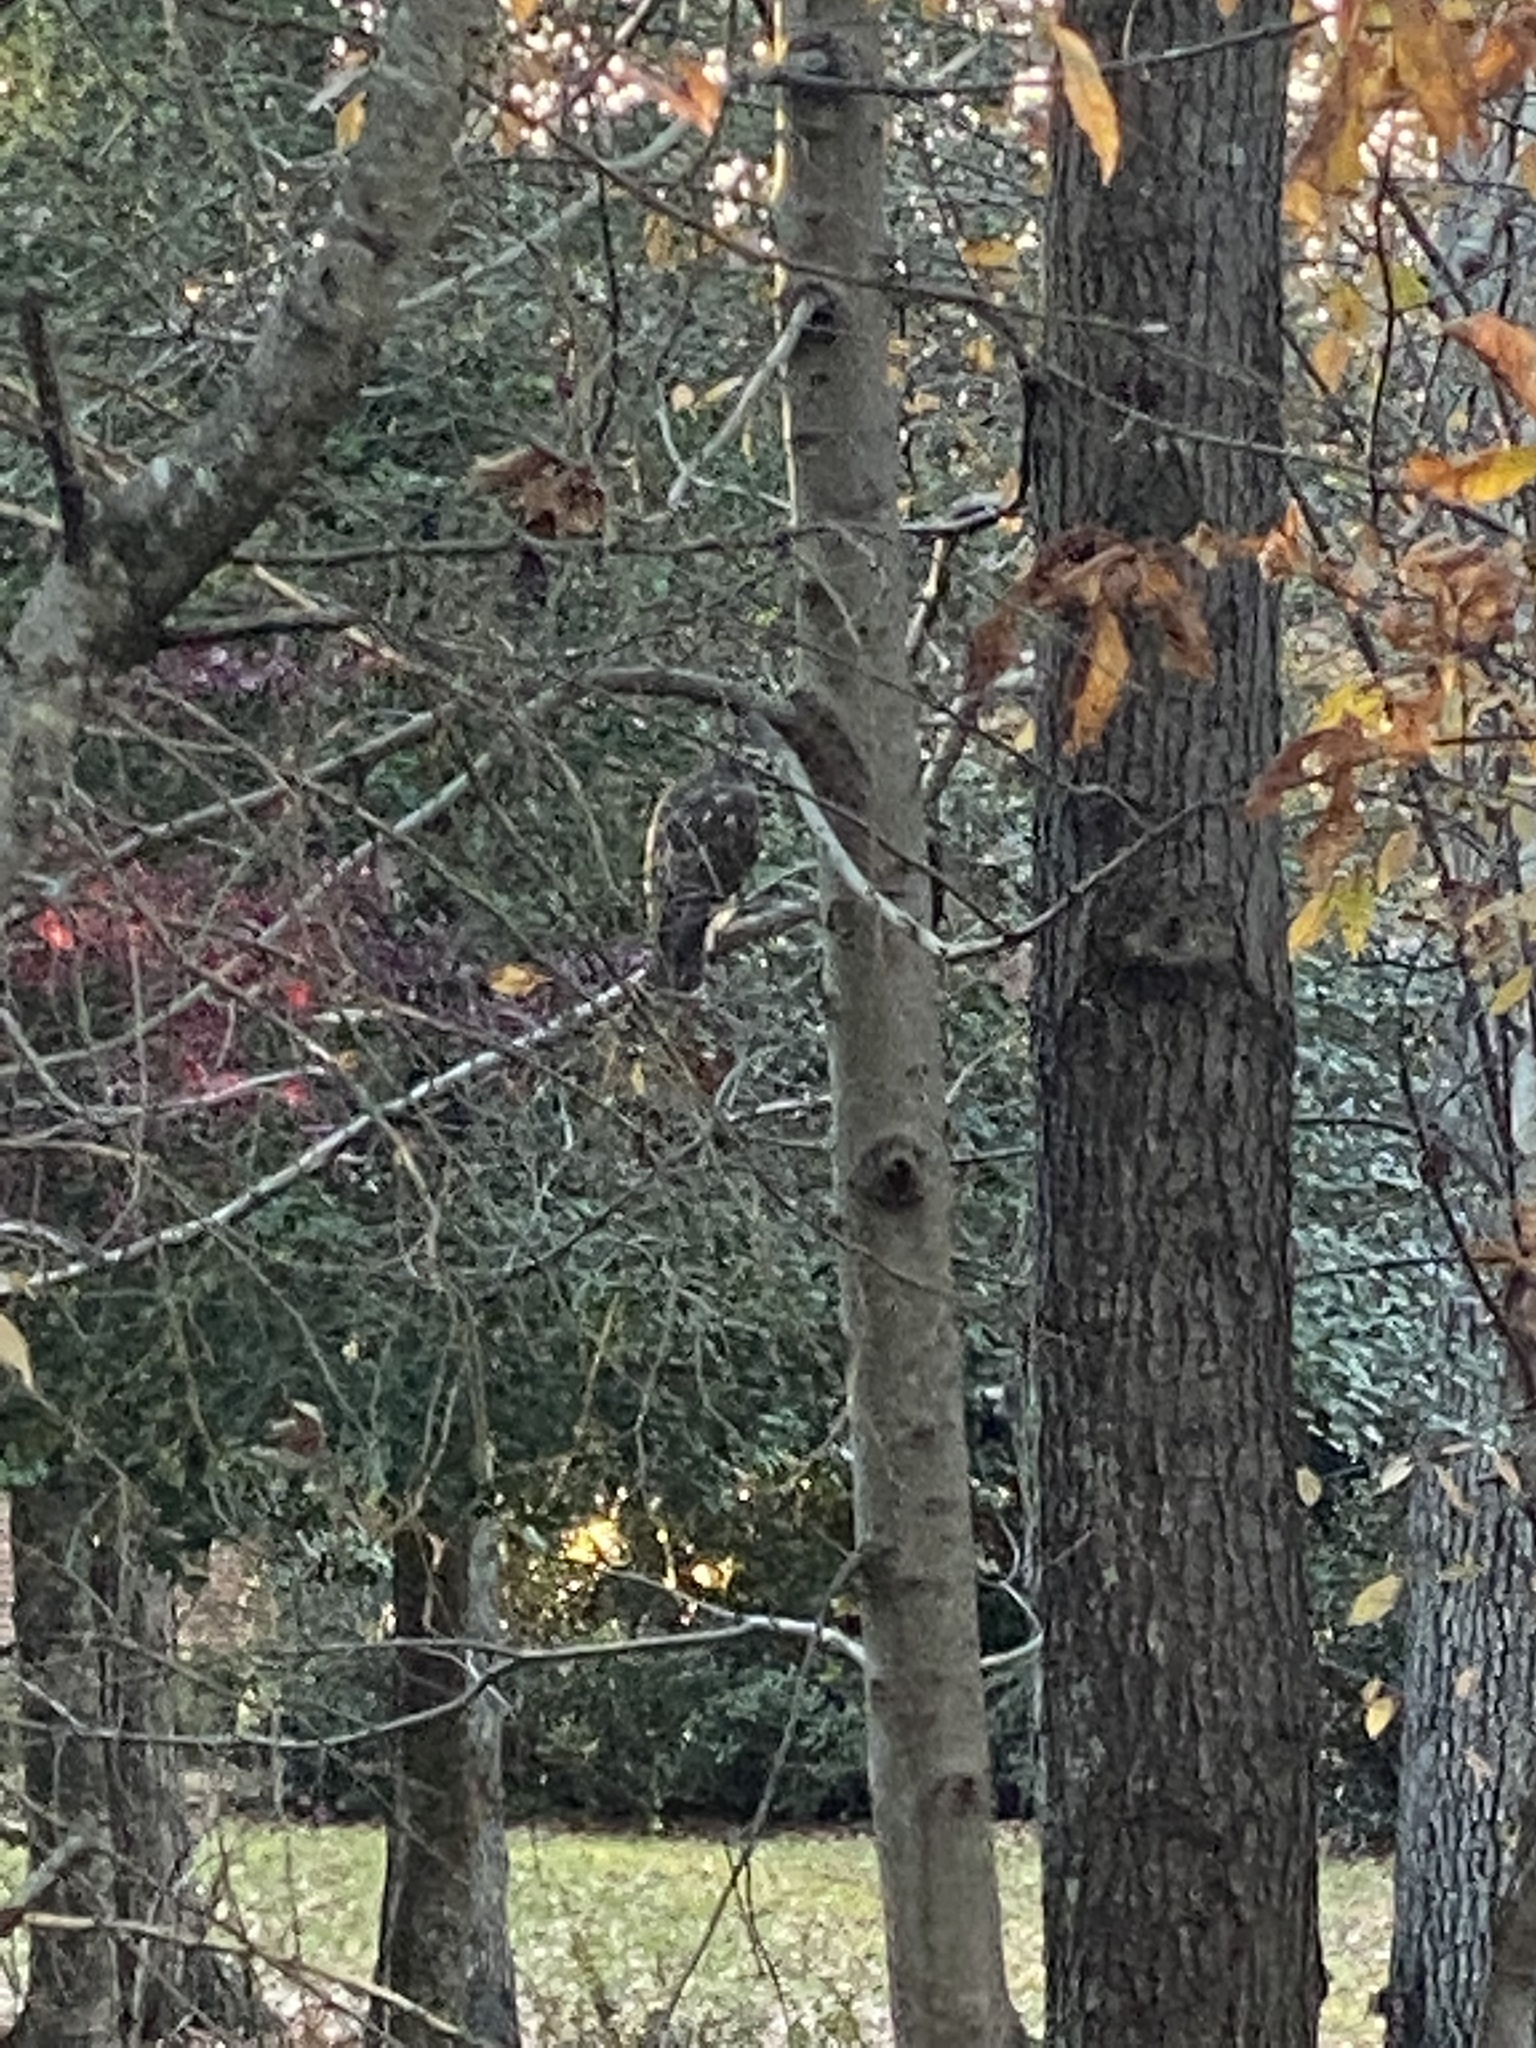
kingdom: Animalia
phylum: Chordata
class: Aves
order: Accipitriformes
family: Accipitridae
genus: Buteo
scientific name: Buteo lineatus
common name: Red-shouldered hawk
